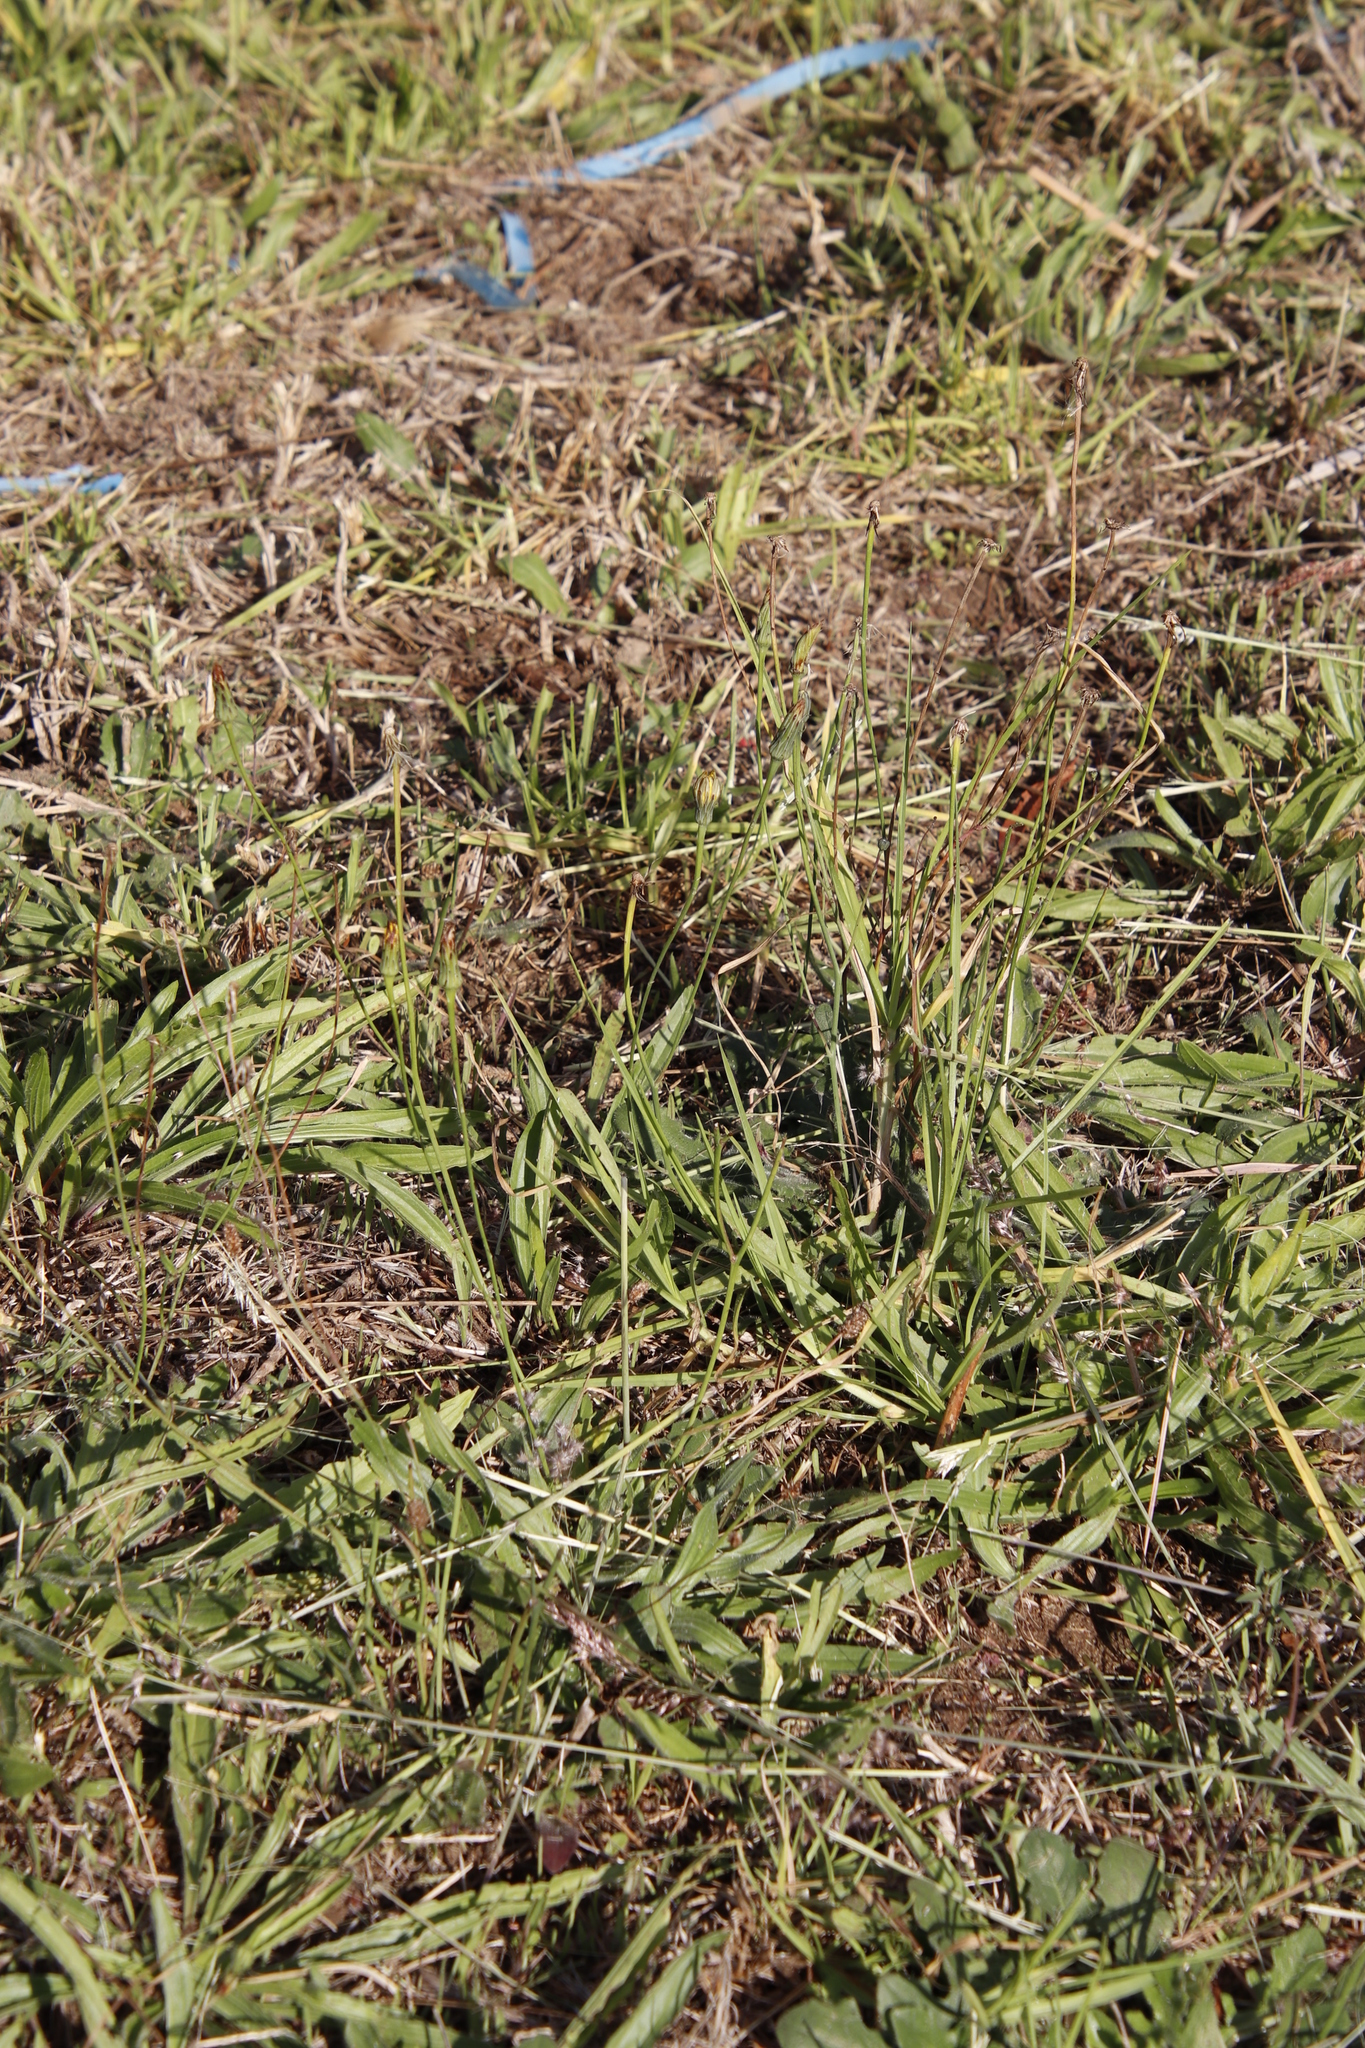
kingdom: Plantae
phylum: Tracheophyta
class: Magnoliopsida
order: Asterales
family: Asteraceae
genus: Hypochaeris
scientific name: Hypochaeris radicata
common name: Flatweed
